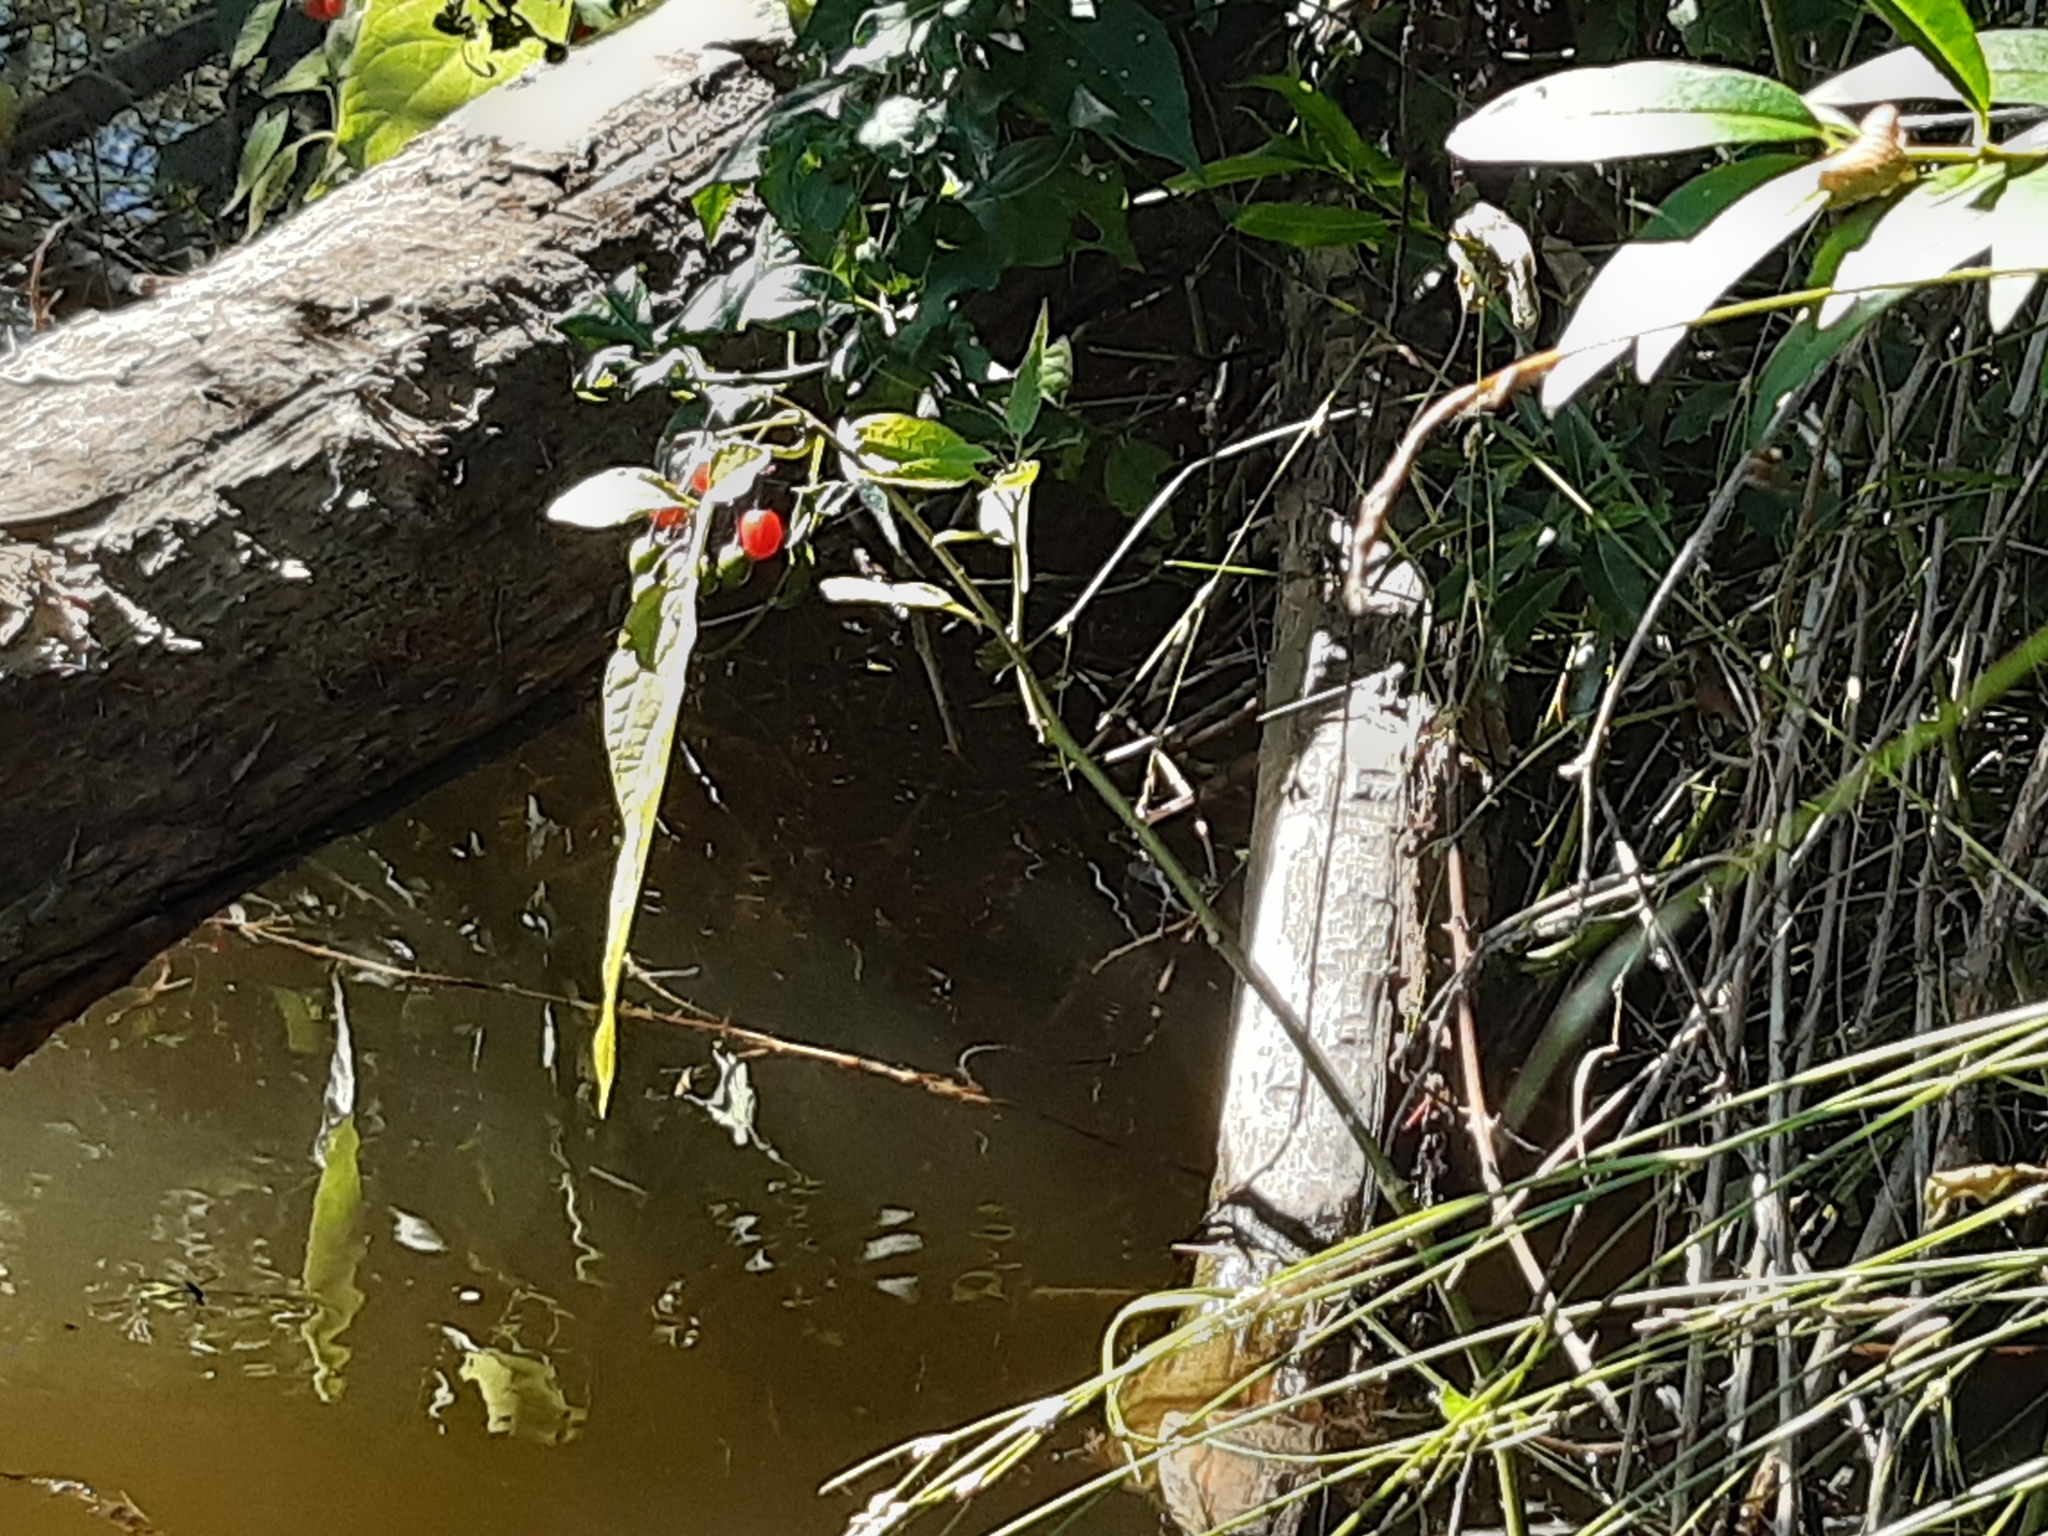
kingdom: Plantae
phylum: Tracheophyta
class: Magnoliopsida
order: Solanales
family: Solanaceae
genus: Solanum
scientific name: Solanum dulcamara
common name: Climbing nightshade
